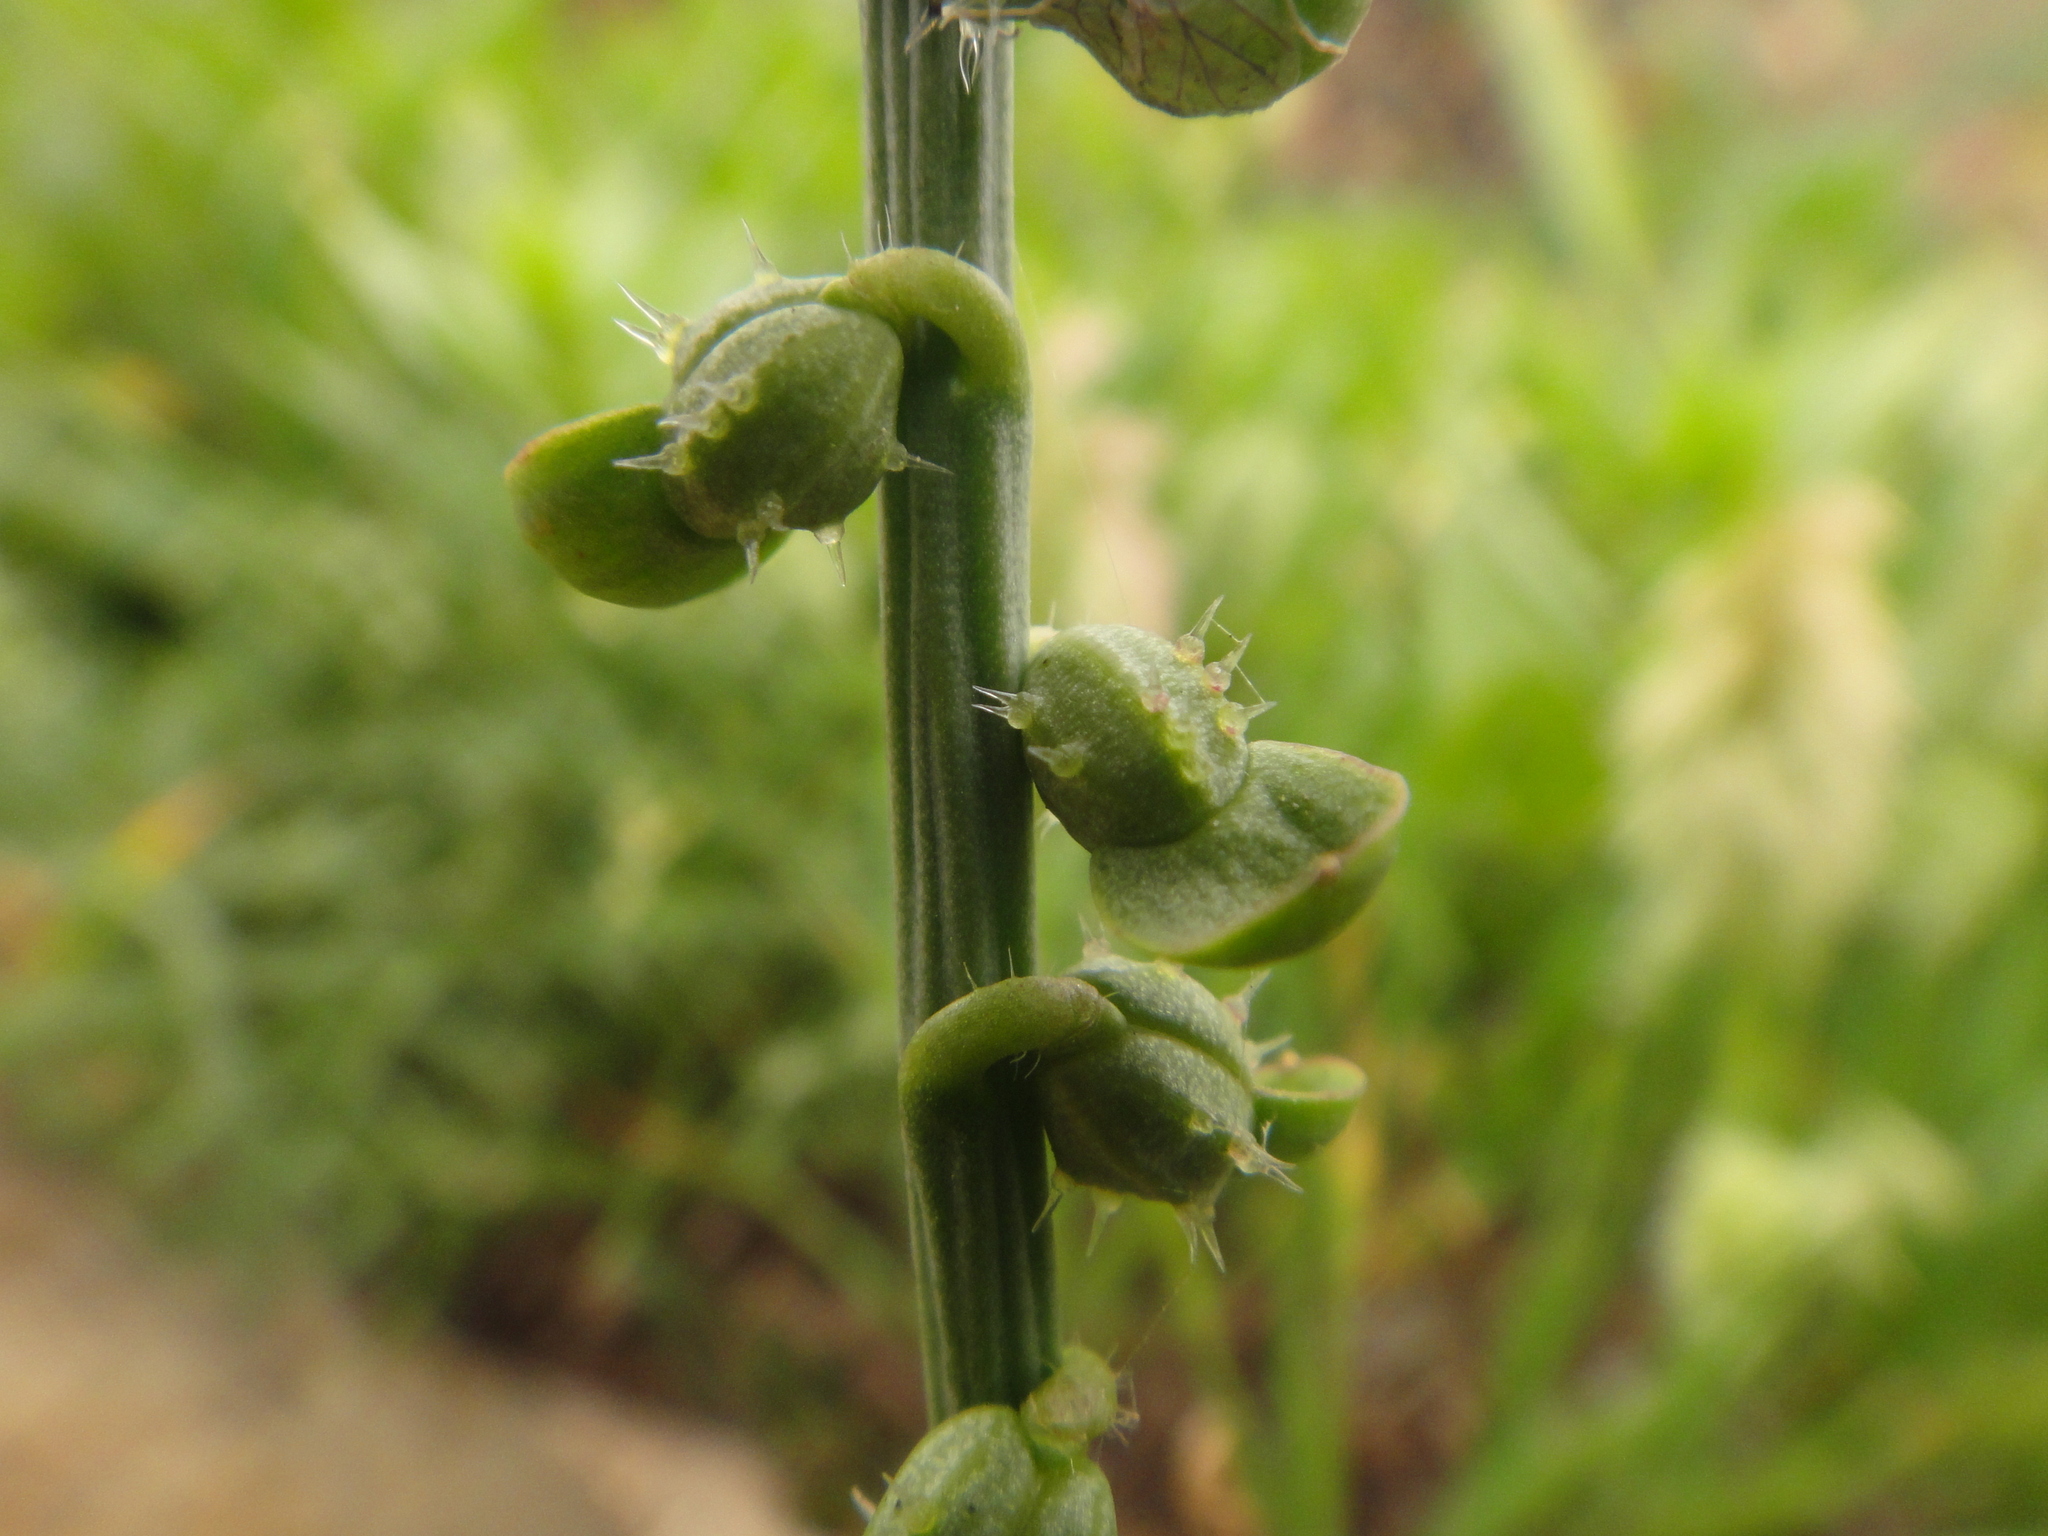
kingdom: Plantae
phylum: Tracheophyta
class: Magnoliopsida
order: Brassicales
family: Brassicaceae
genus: Carrichtera
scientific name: Carrichtera annua
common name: Cress rocket
